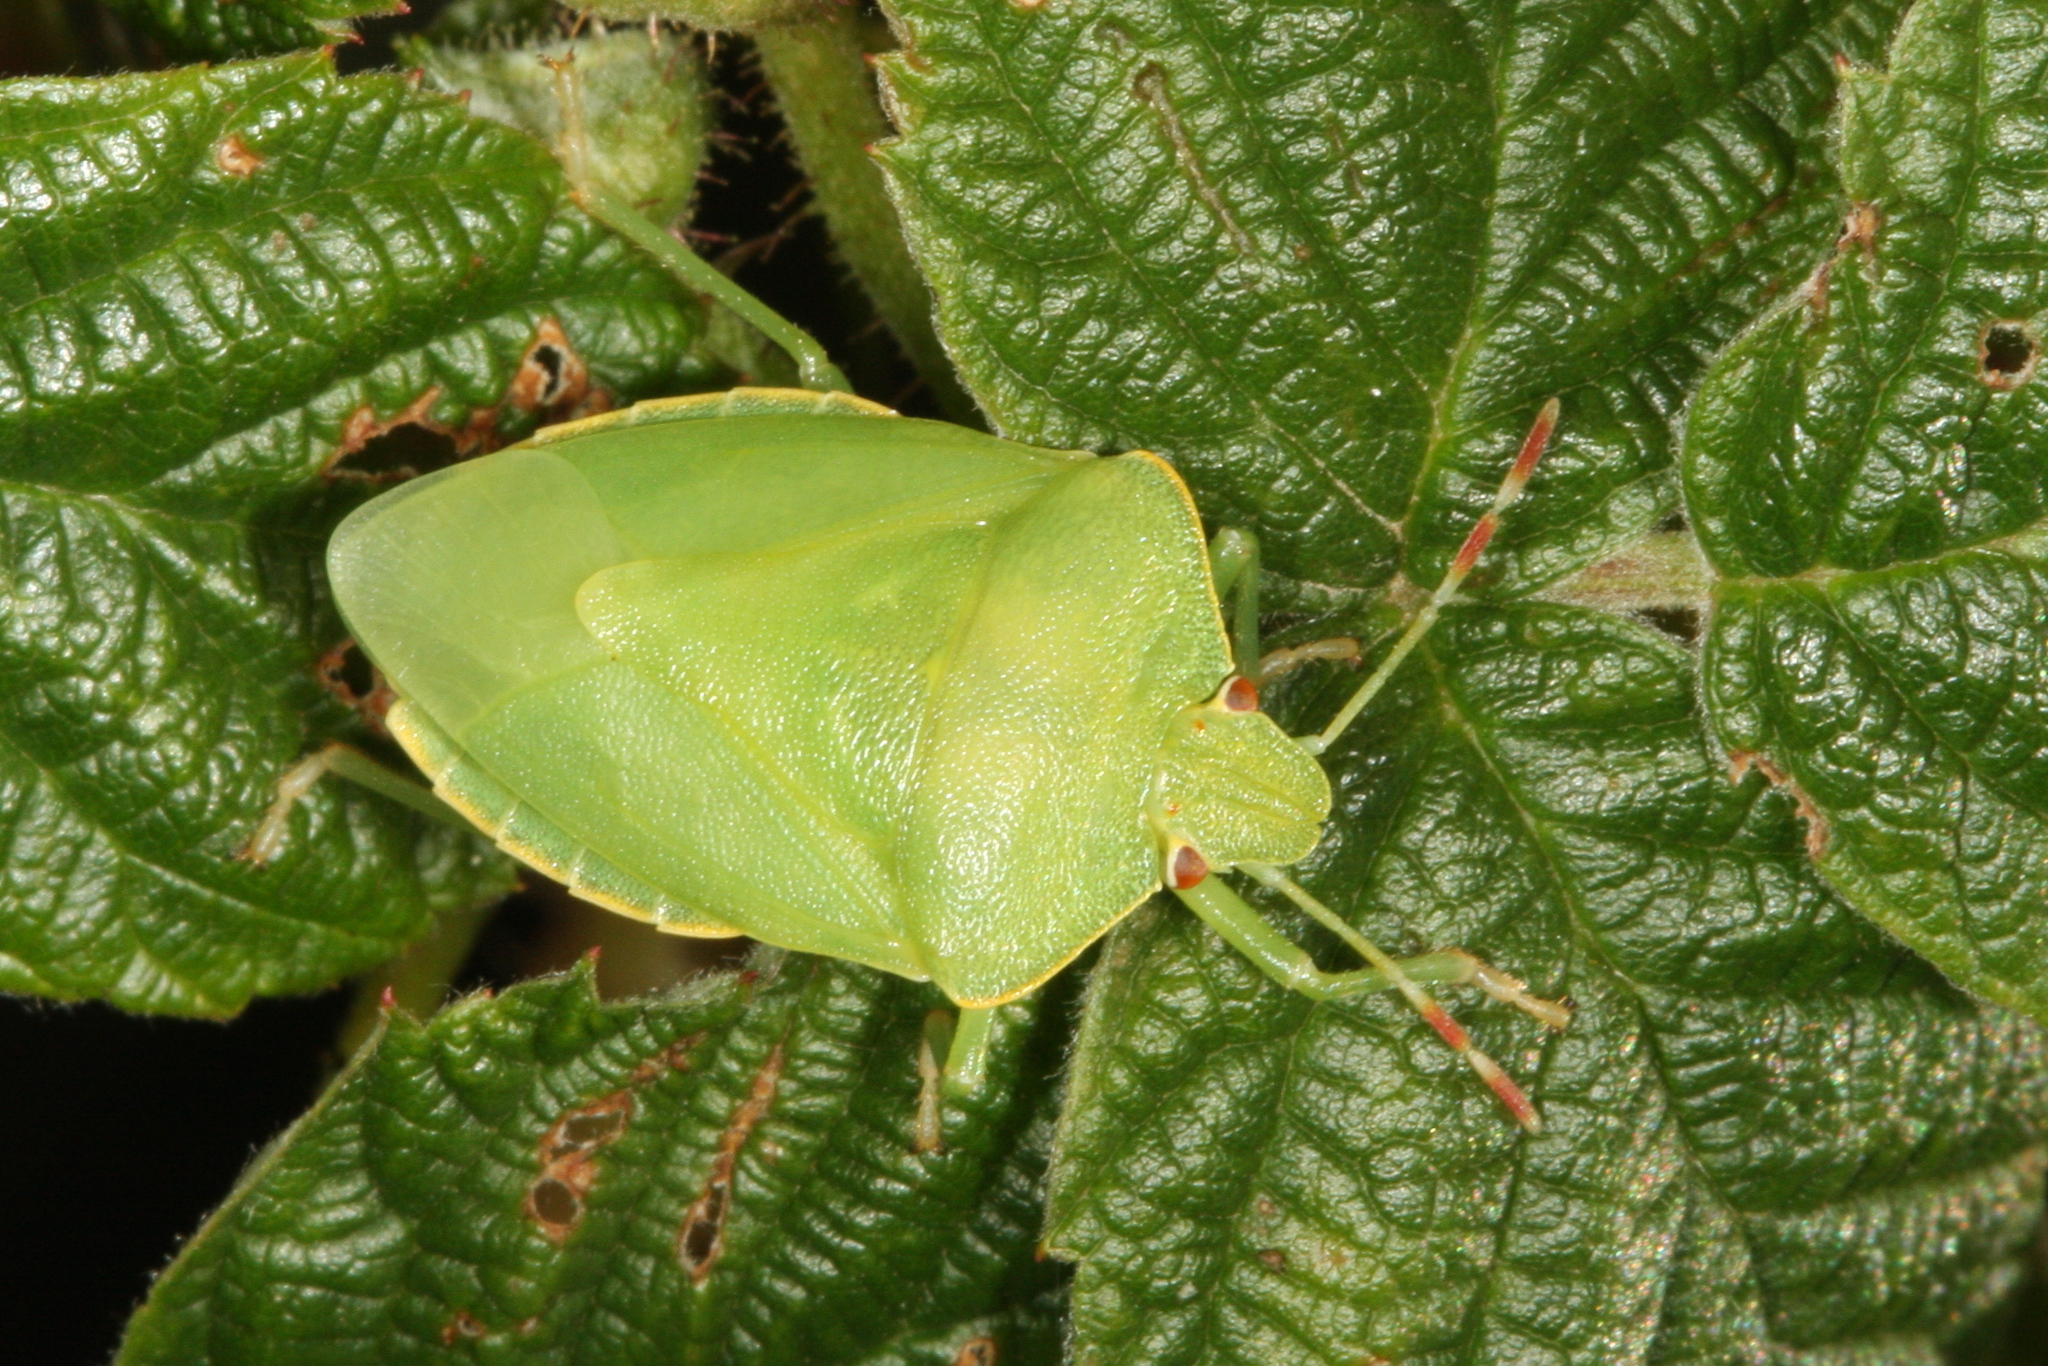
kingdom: Animalia
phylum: Arthropoda
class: Insecta
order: Hemiptera
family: Pentatomidae
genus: Palomena
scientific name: Palomena prasina
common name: Green shieldbug
